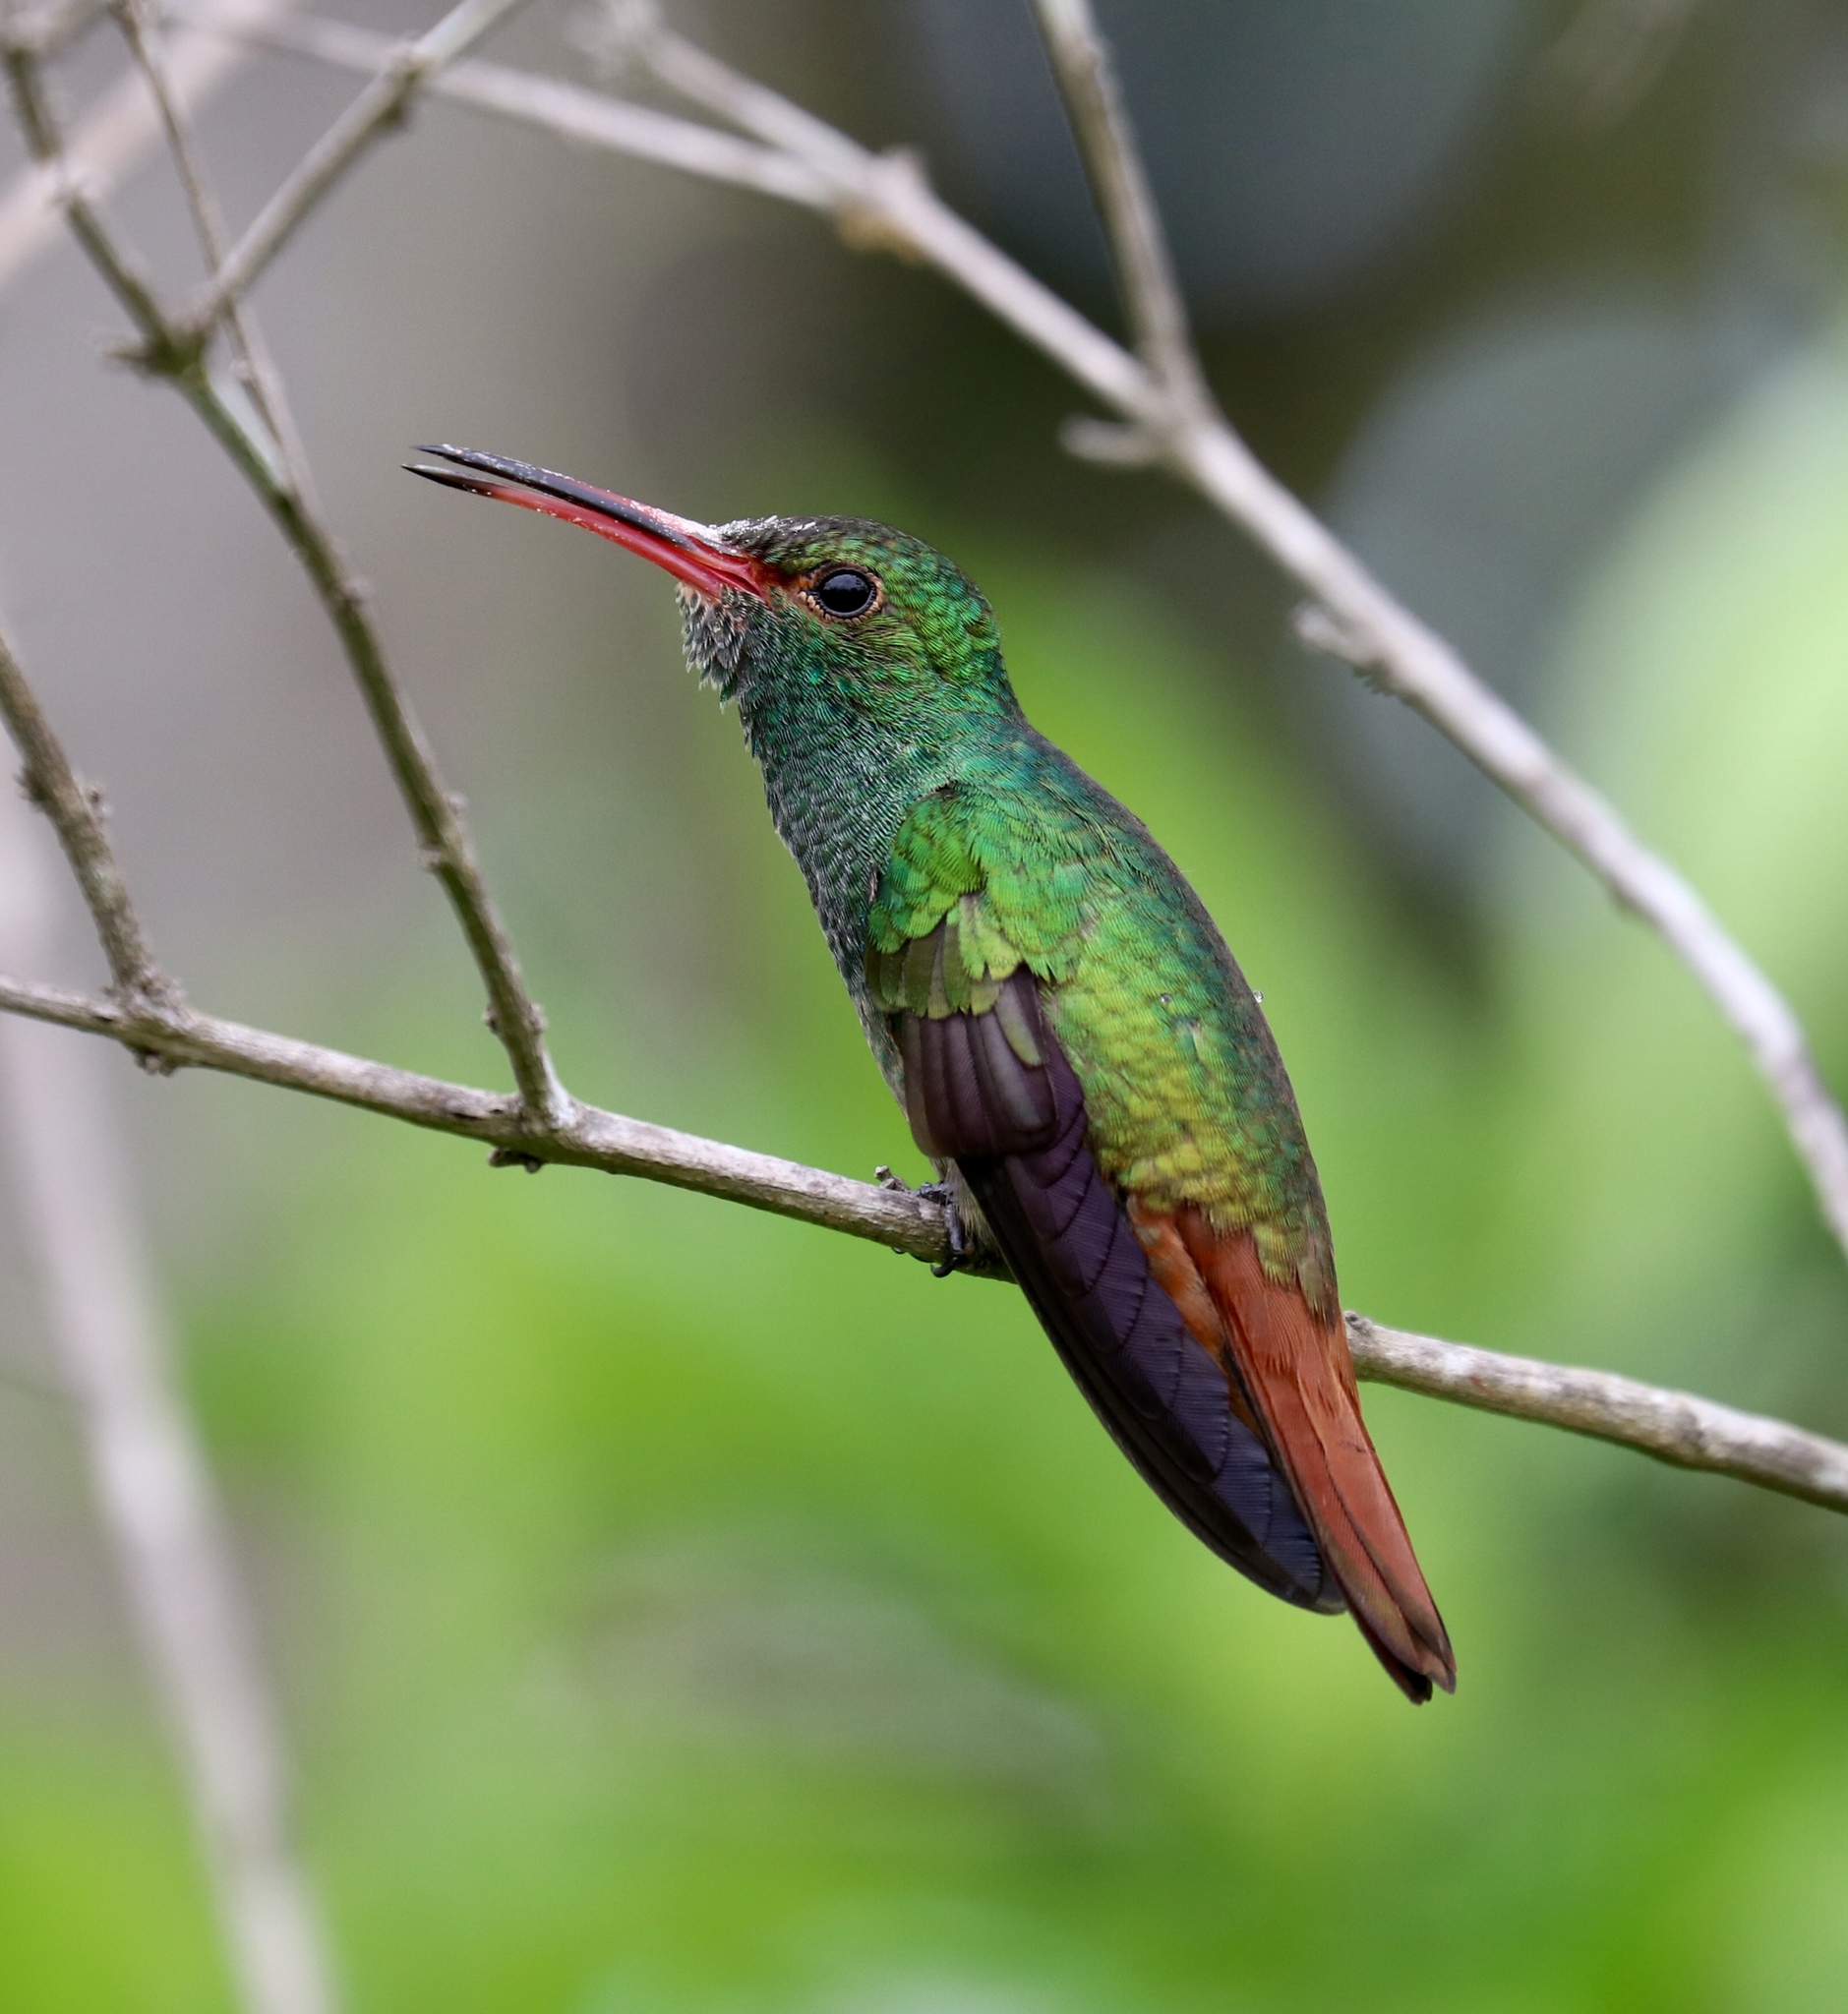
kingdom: Animalia
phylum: Chordata
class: Aves
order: Apodiformes
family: Trochilidae
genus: Amazilia
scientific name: Amazilia tzacatl
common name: Rufous-tailed hummingbird
